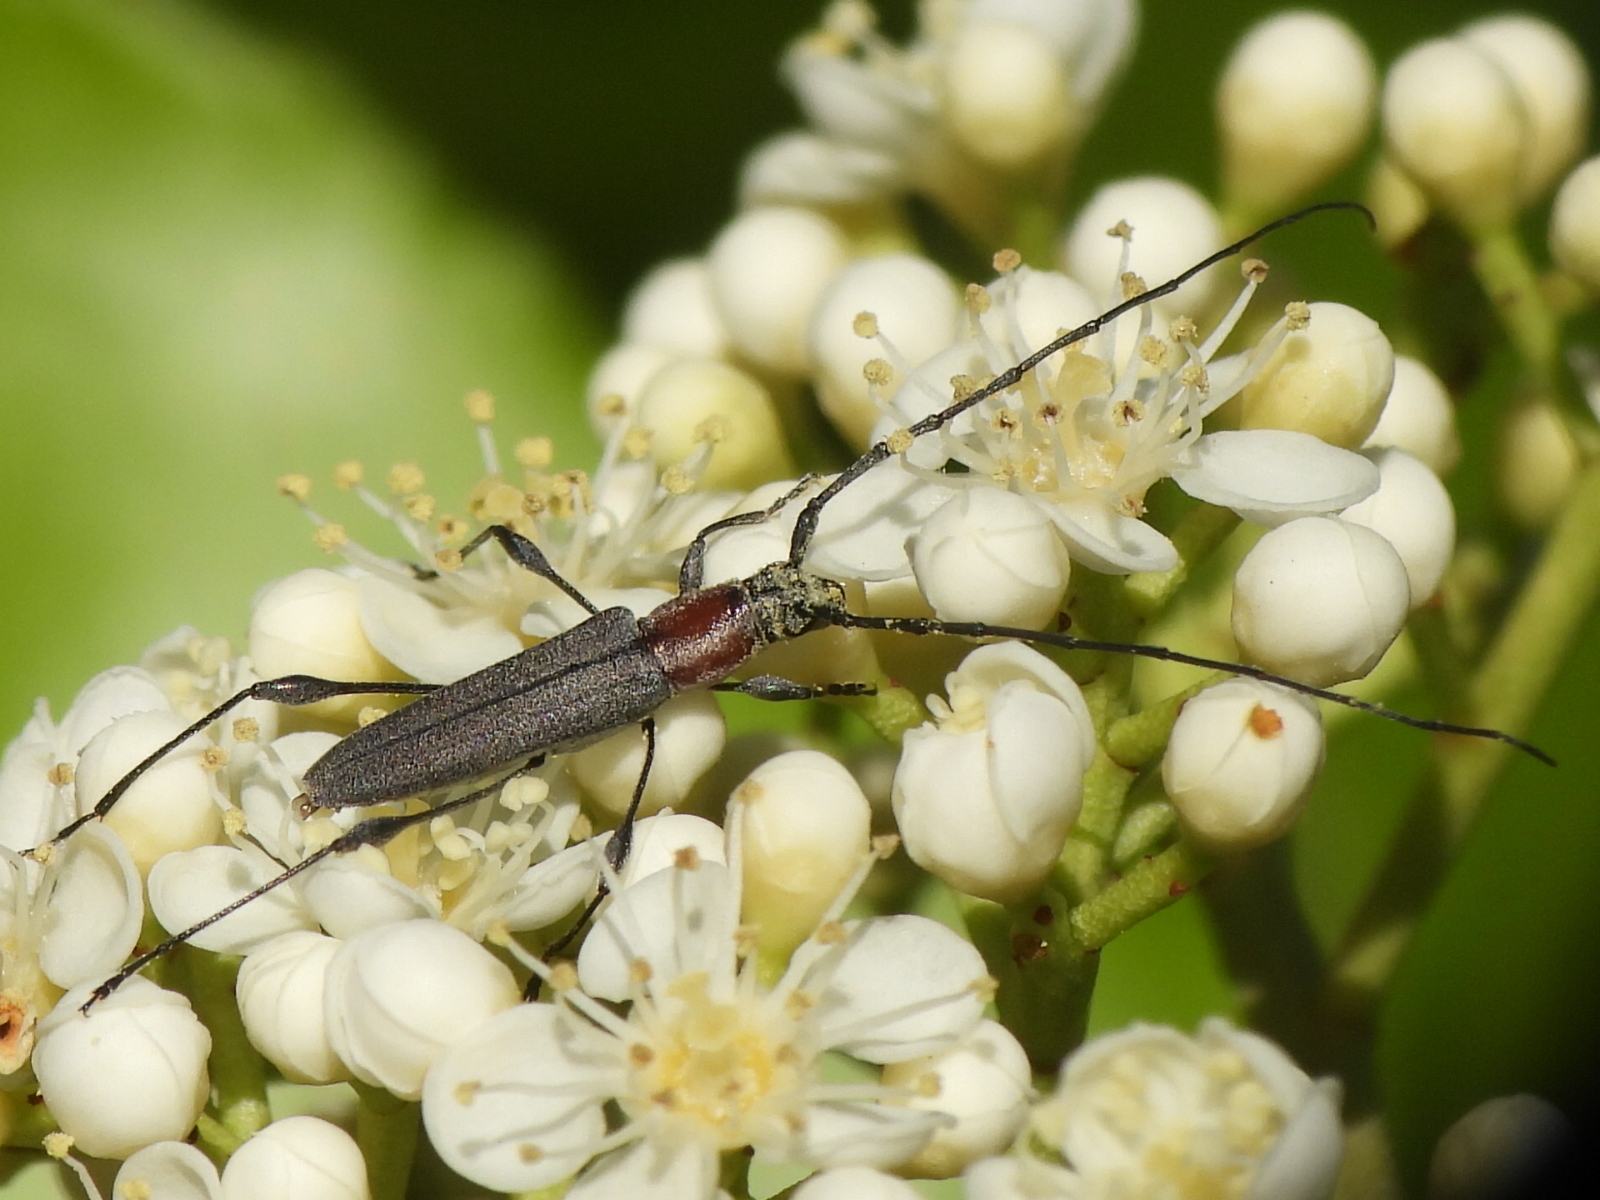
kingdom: Animalia
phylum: Arthropoda
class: Insecta
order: Coleoptera
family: Cerambycidae
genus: Rhopalophora
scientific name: Rhopalophora longipes
